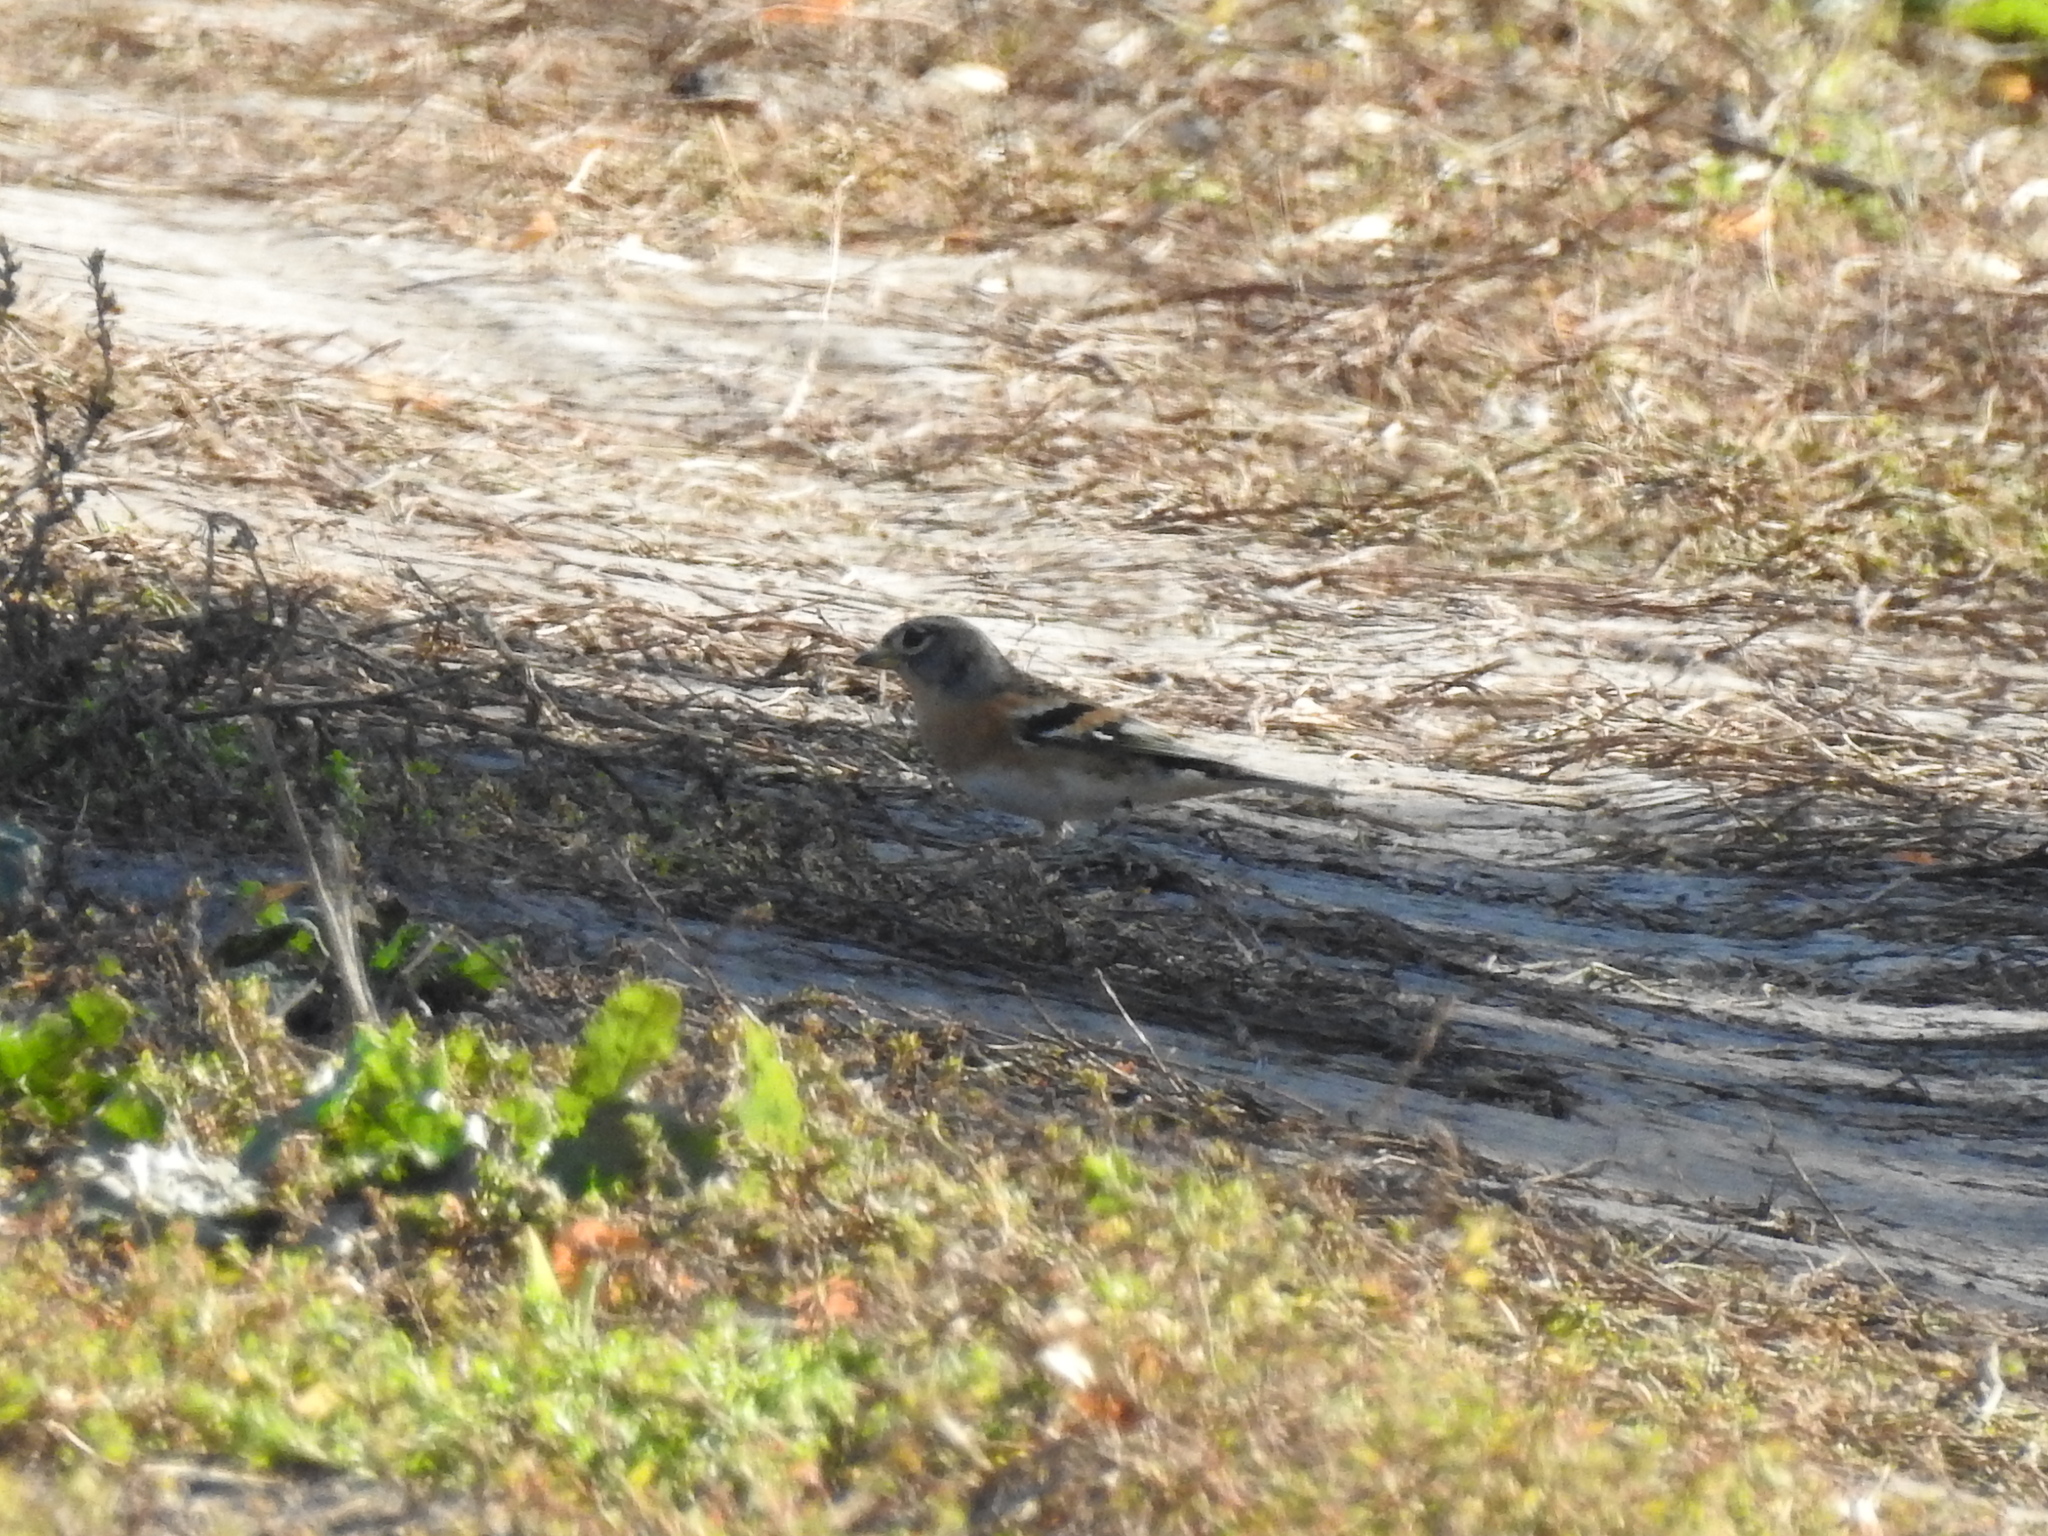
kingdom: Animalia
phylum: Chordata
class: Aves
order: Passeriformes
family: Fringillidae
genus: Fringilla
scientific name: Fringilla montifringilla
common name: Brambling
